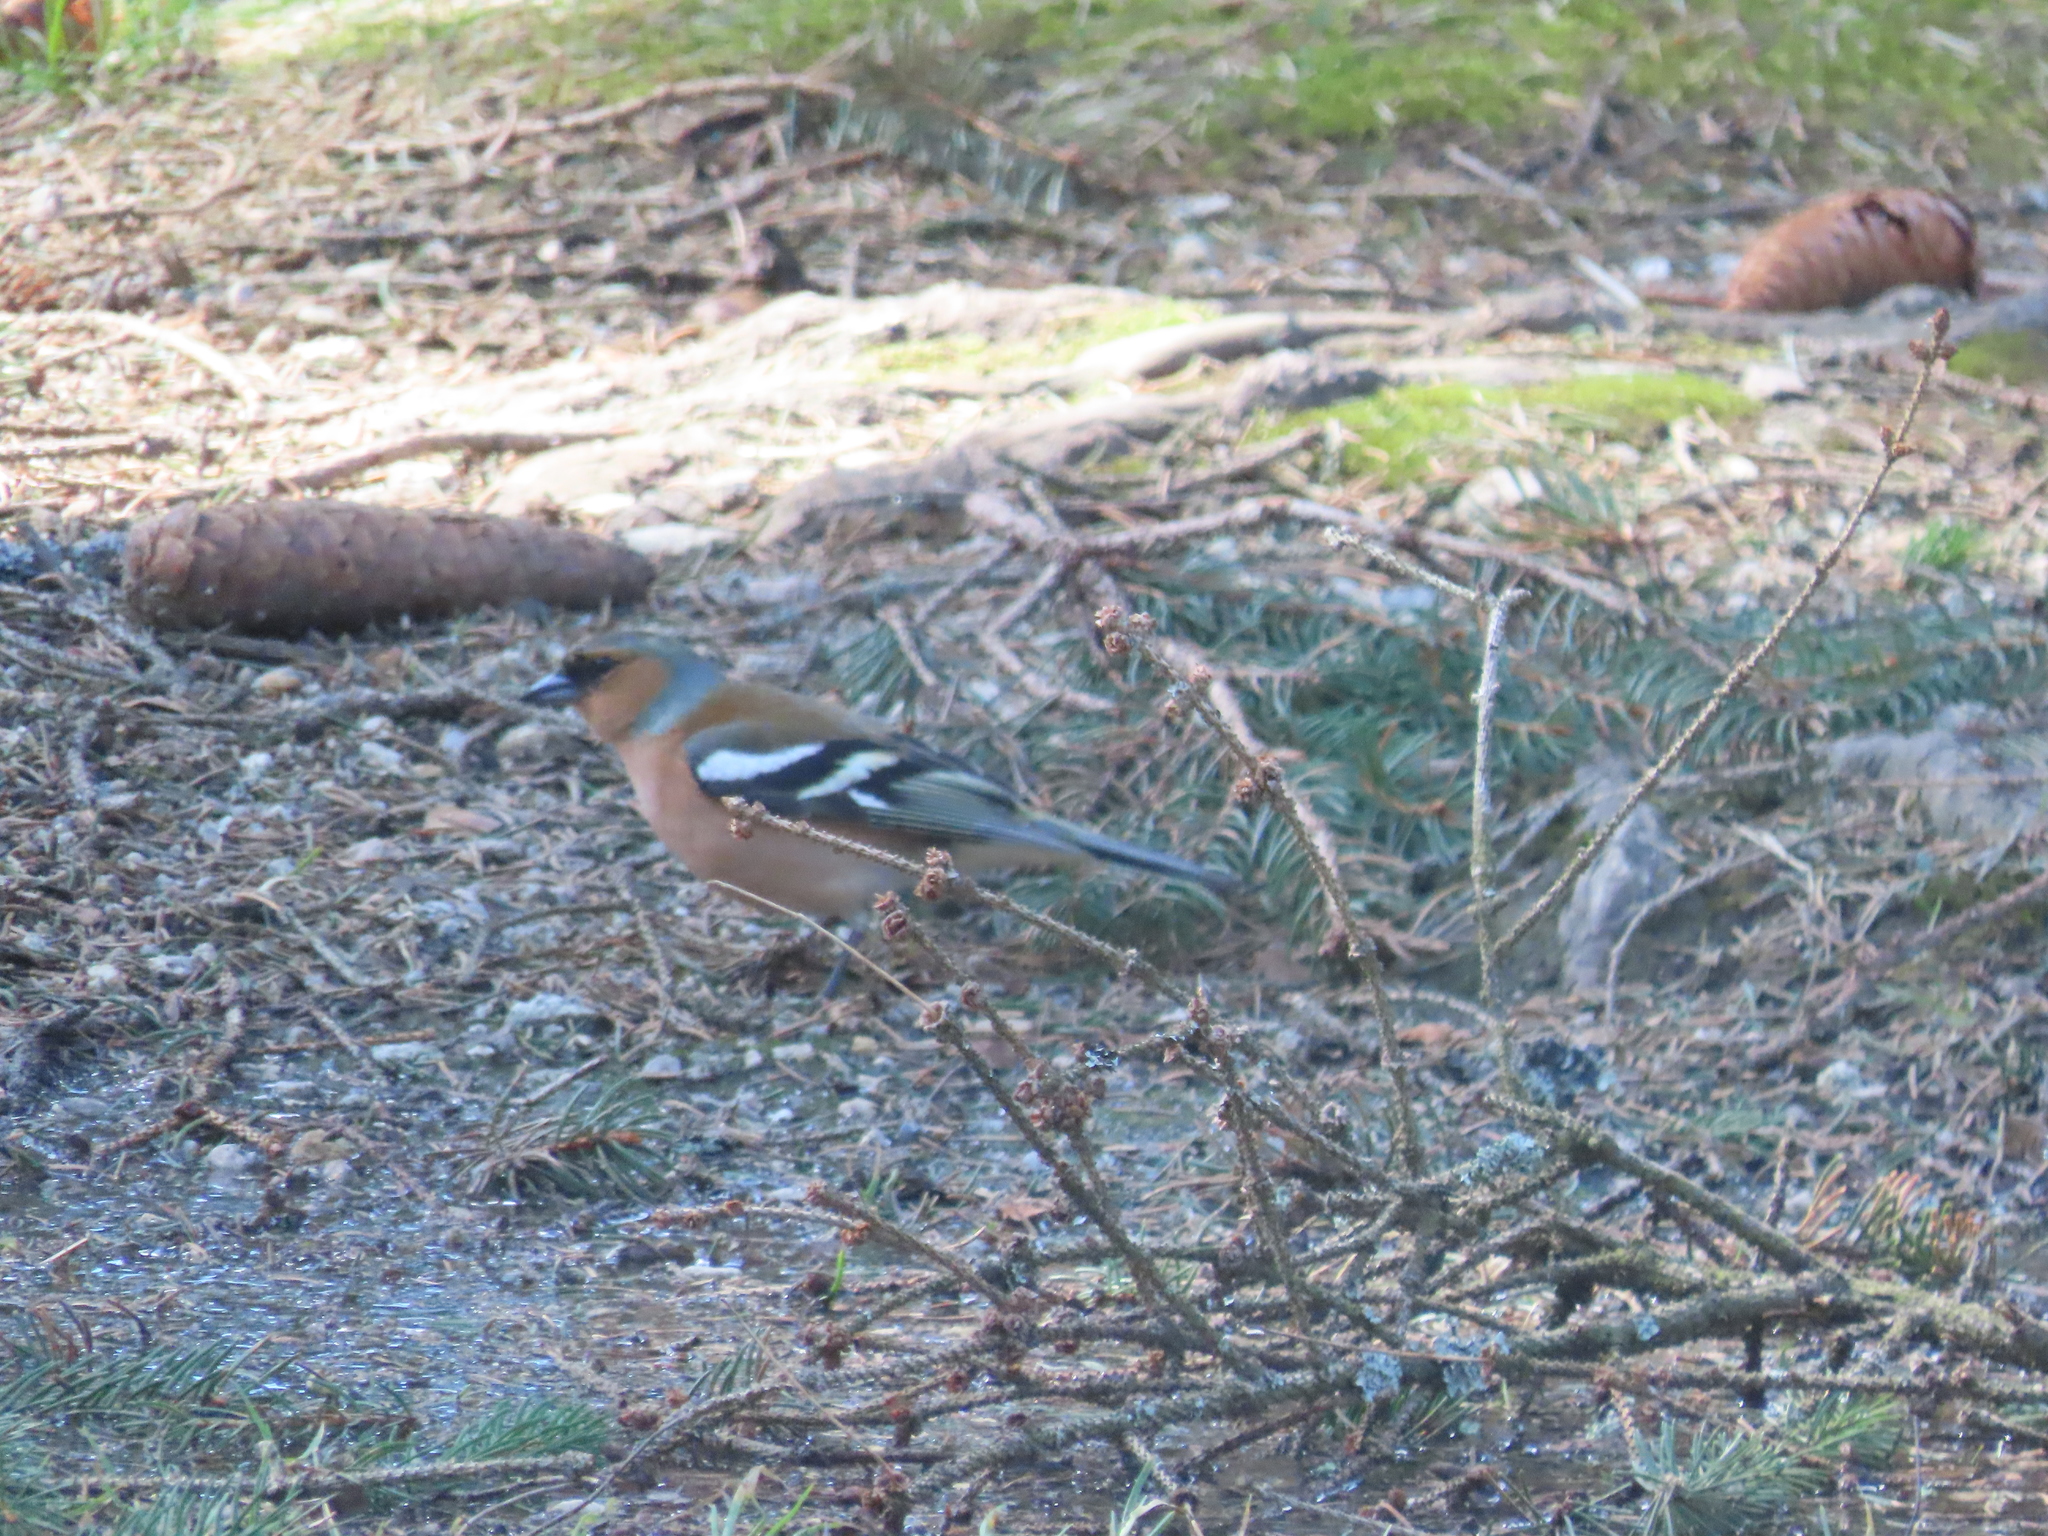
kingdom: Animalia
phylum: Chordata
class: Aves
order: Passeriformes
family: Fringillidae
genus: Fringilla
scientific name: Fringilla coelebs
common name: Common chaffinch
